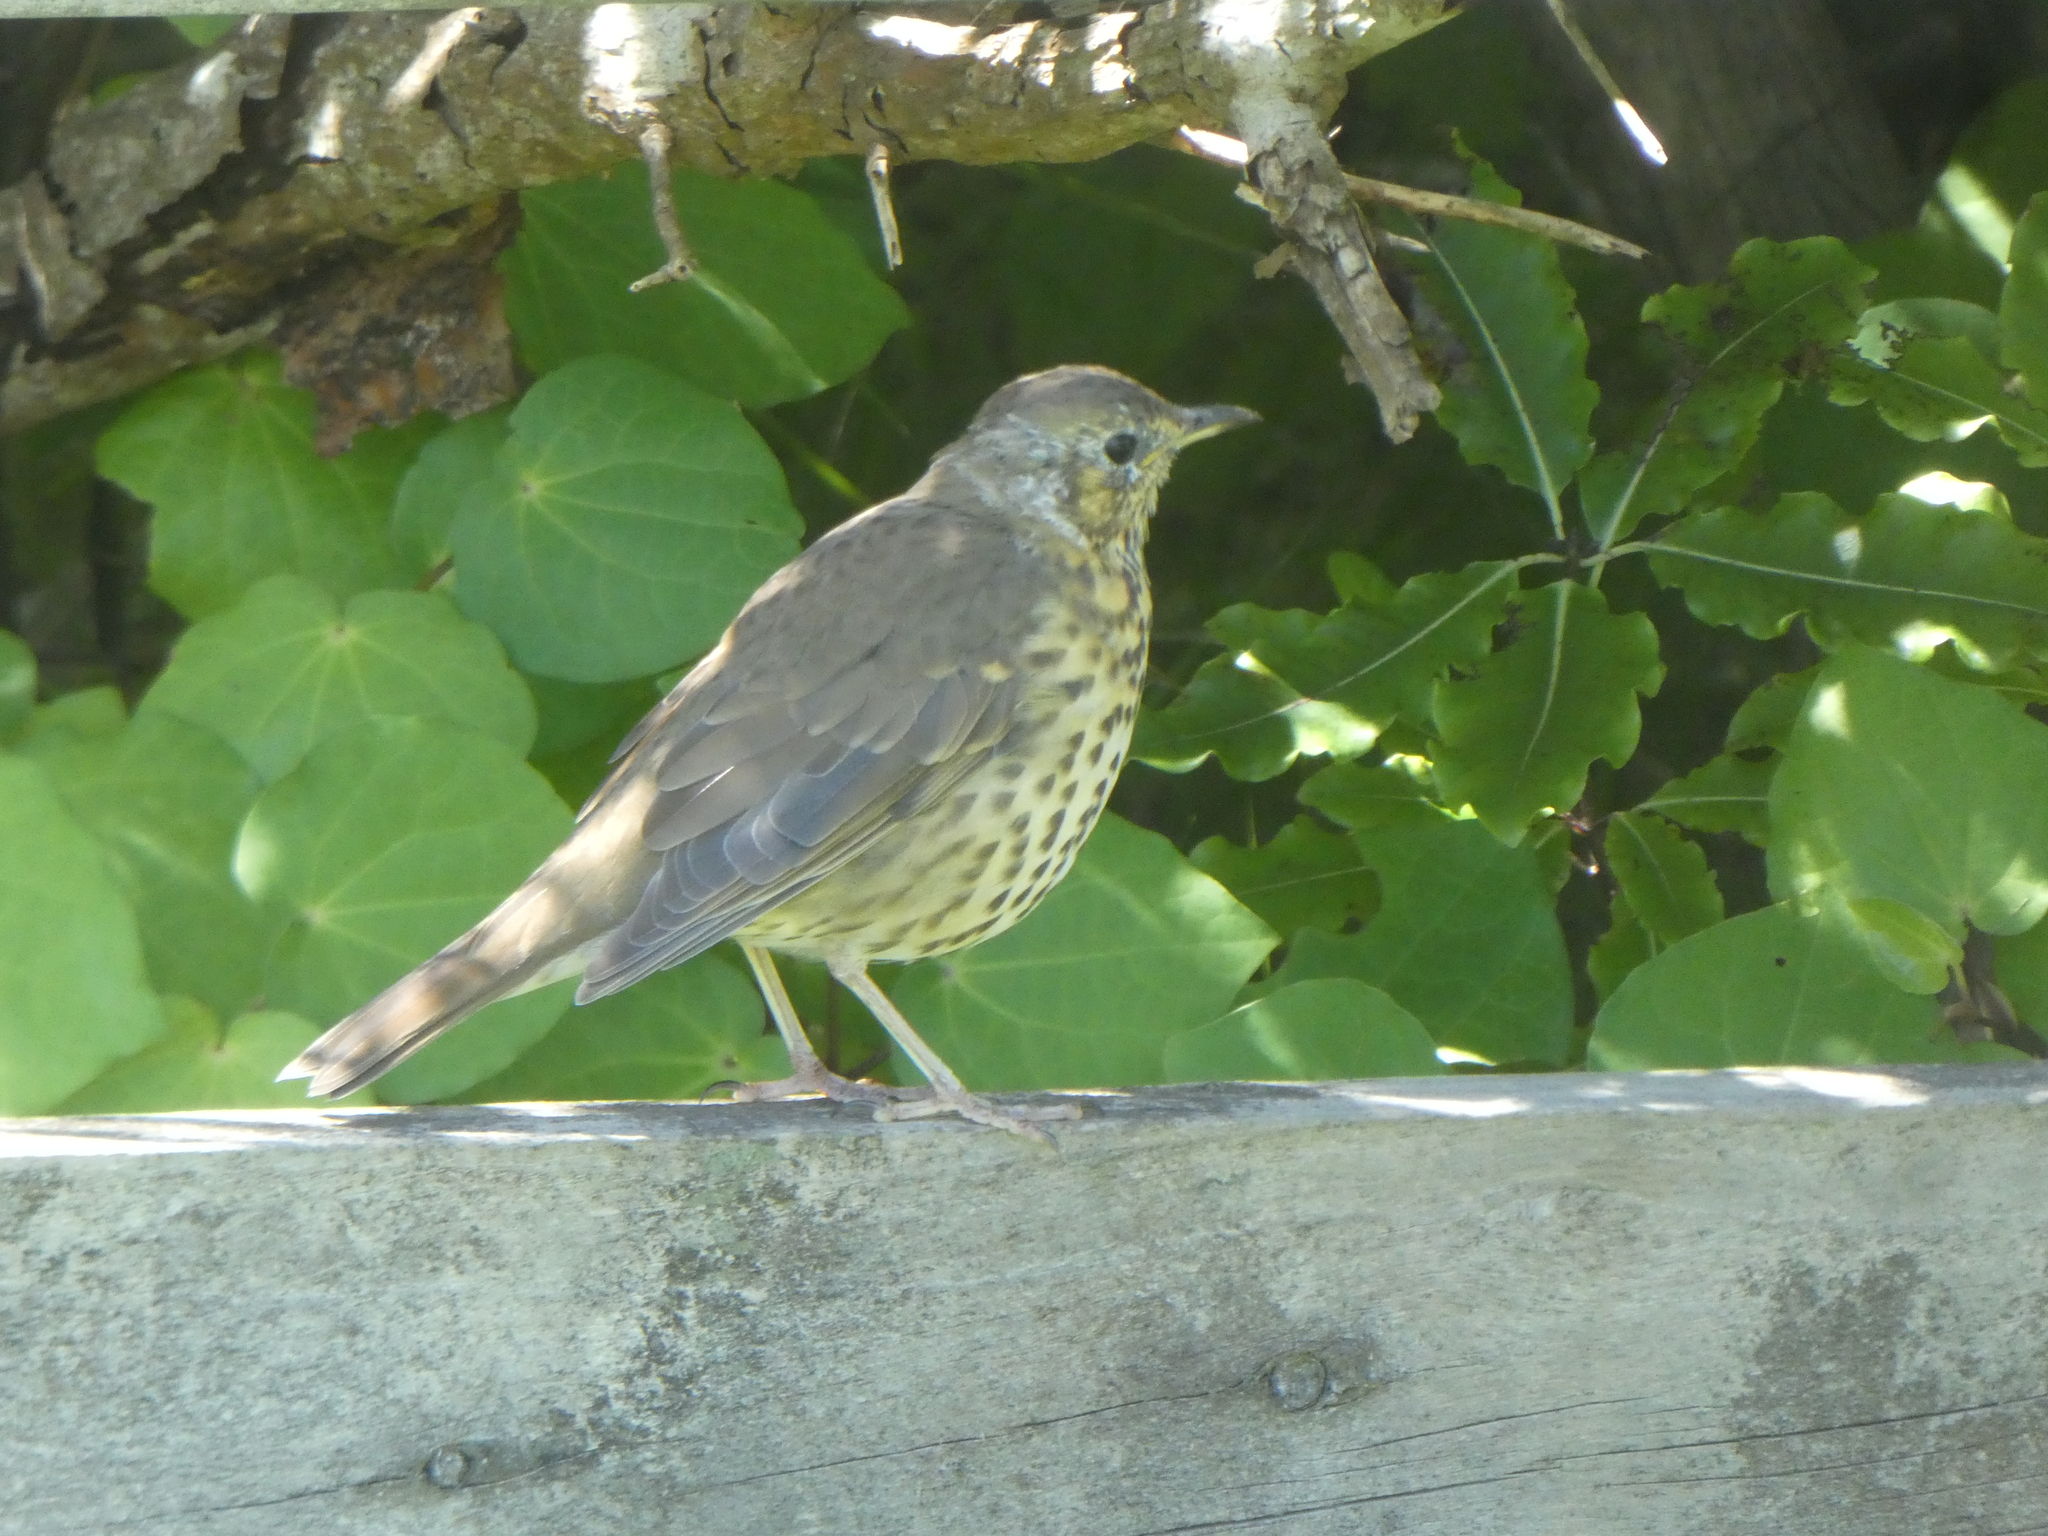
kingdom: Animalia
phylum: Chordata
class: Aves
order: Passeriformes
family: Turdidae
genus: Turdus
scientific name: Turdus philomelos
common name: Song thrush
